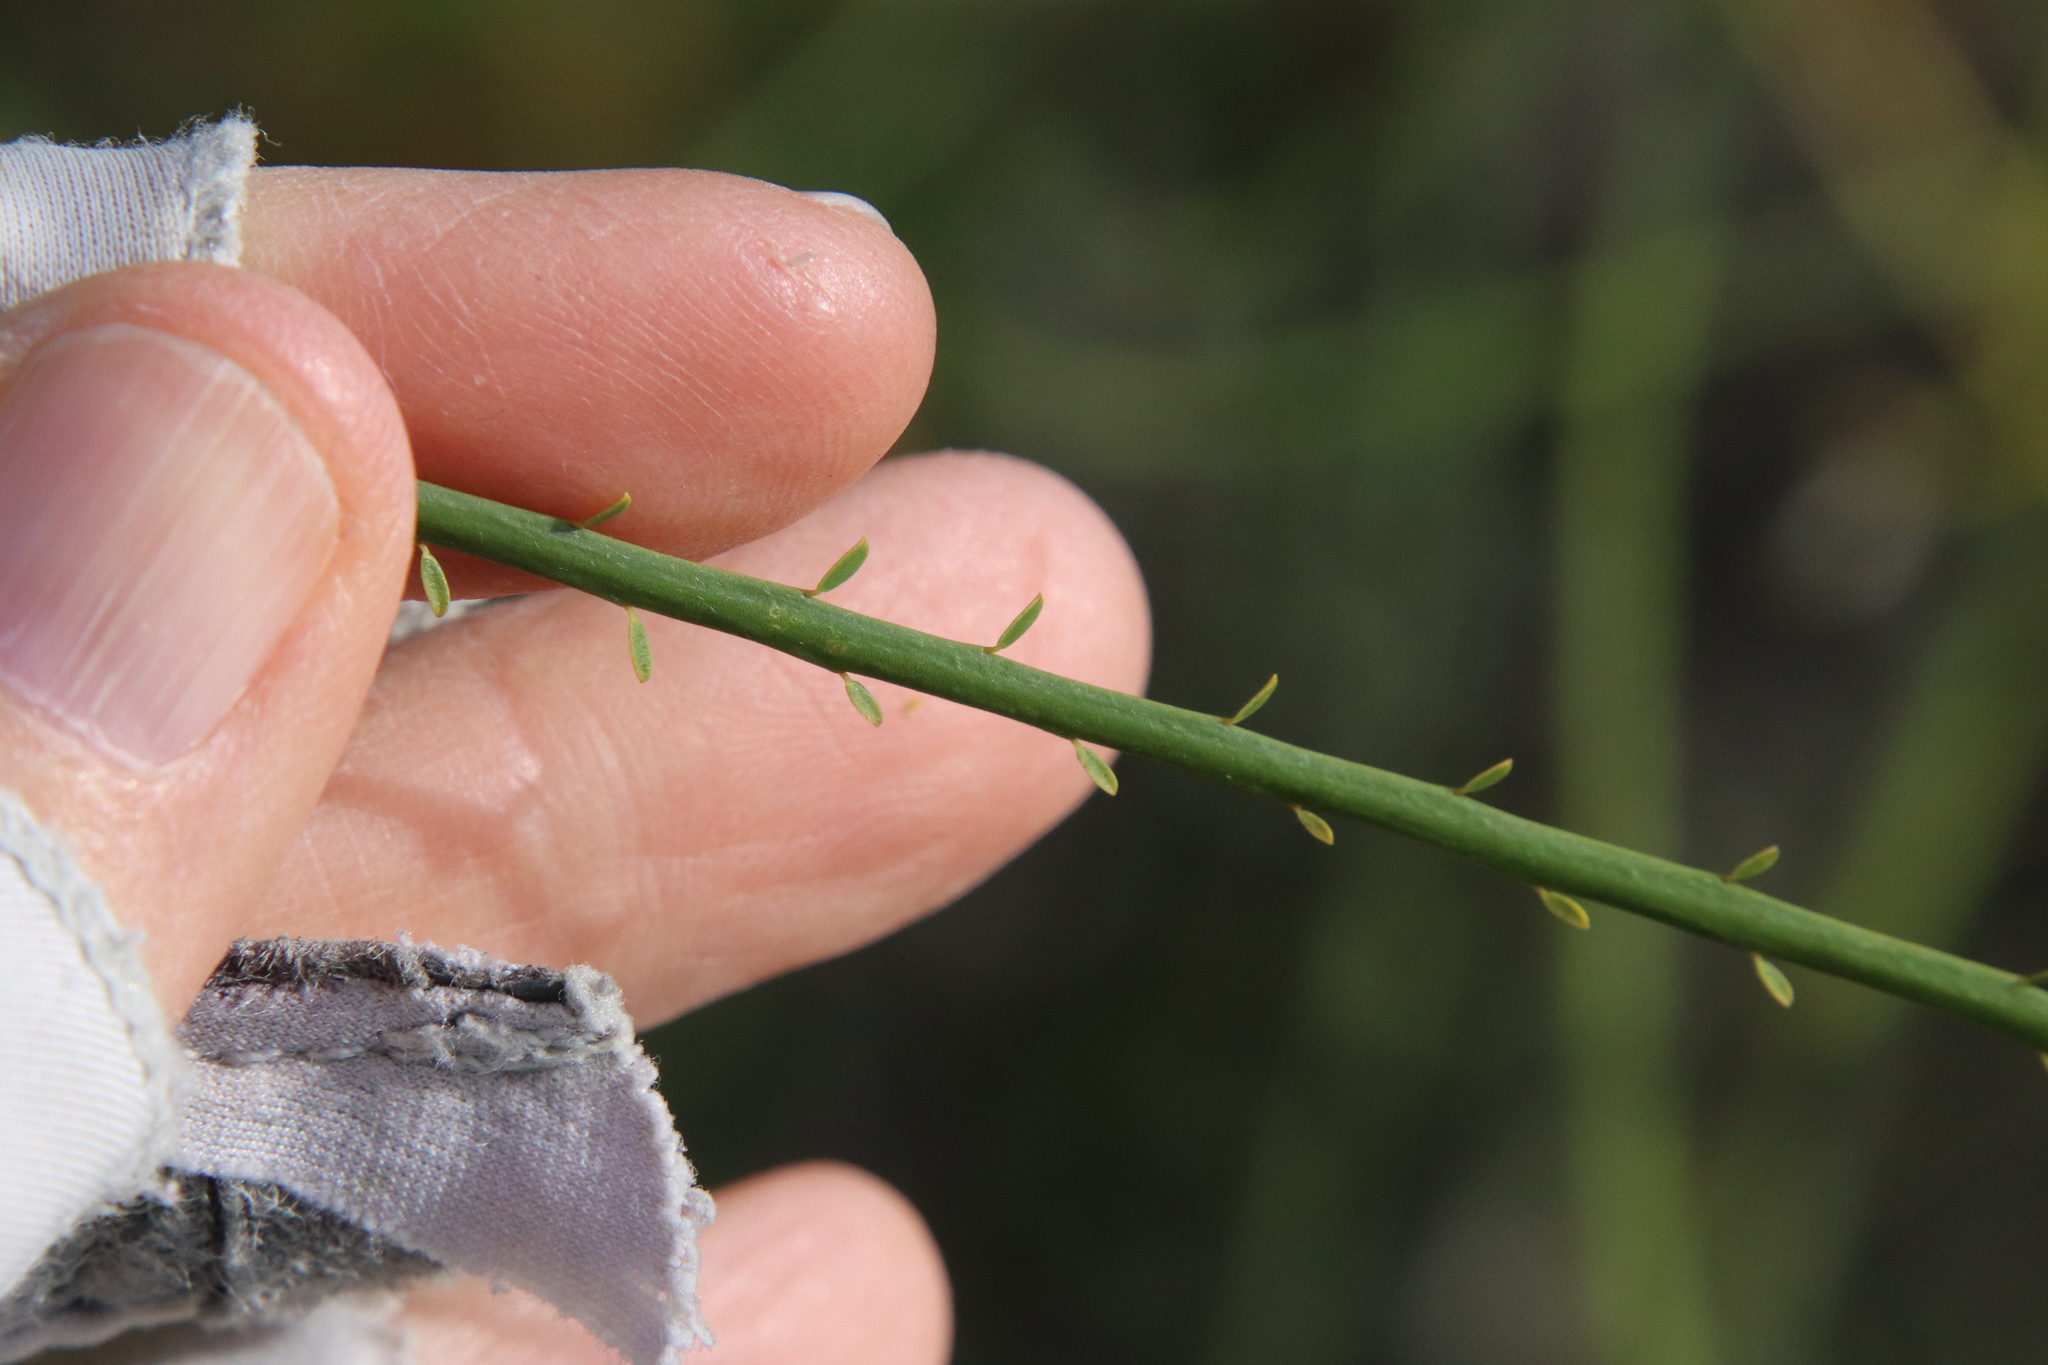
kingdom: Plantae
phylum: Tracheophyta
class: Magnoliopsida
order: Fabales
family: Fabaceae
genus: Parkinsonia
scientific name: Parkinsonia aculeata
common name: Jerusalem thorn
